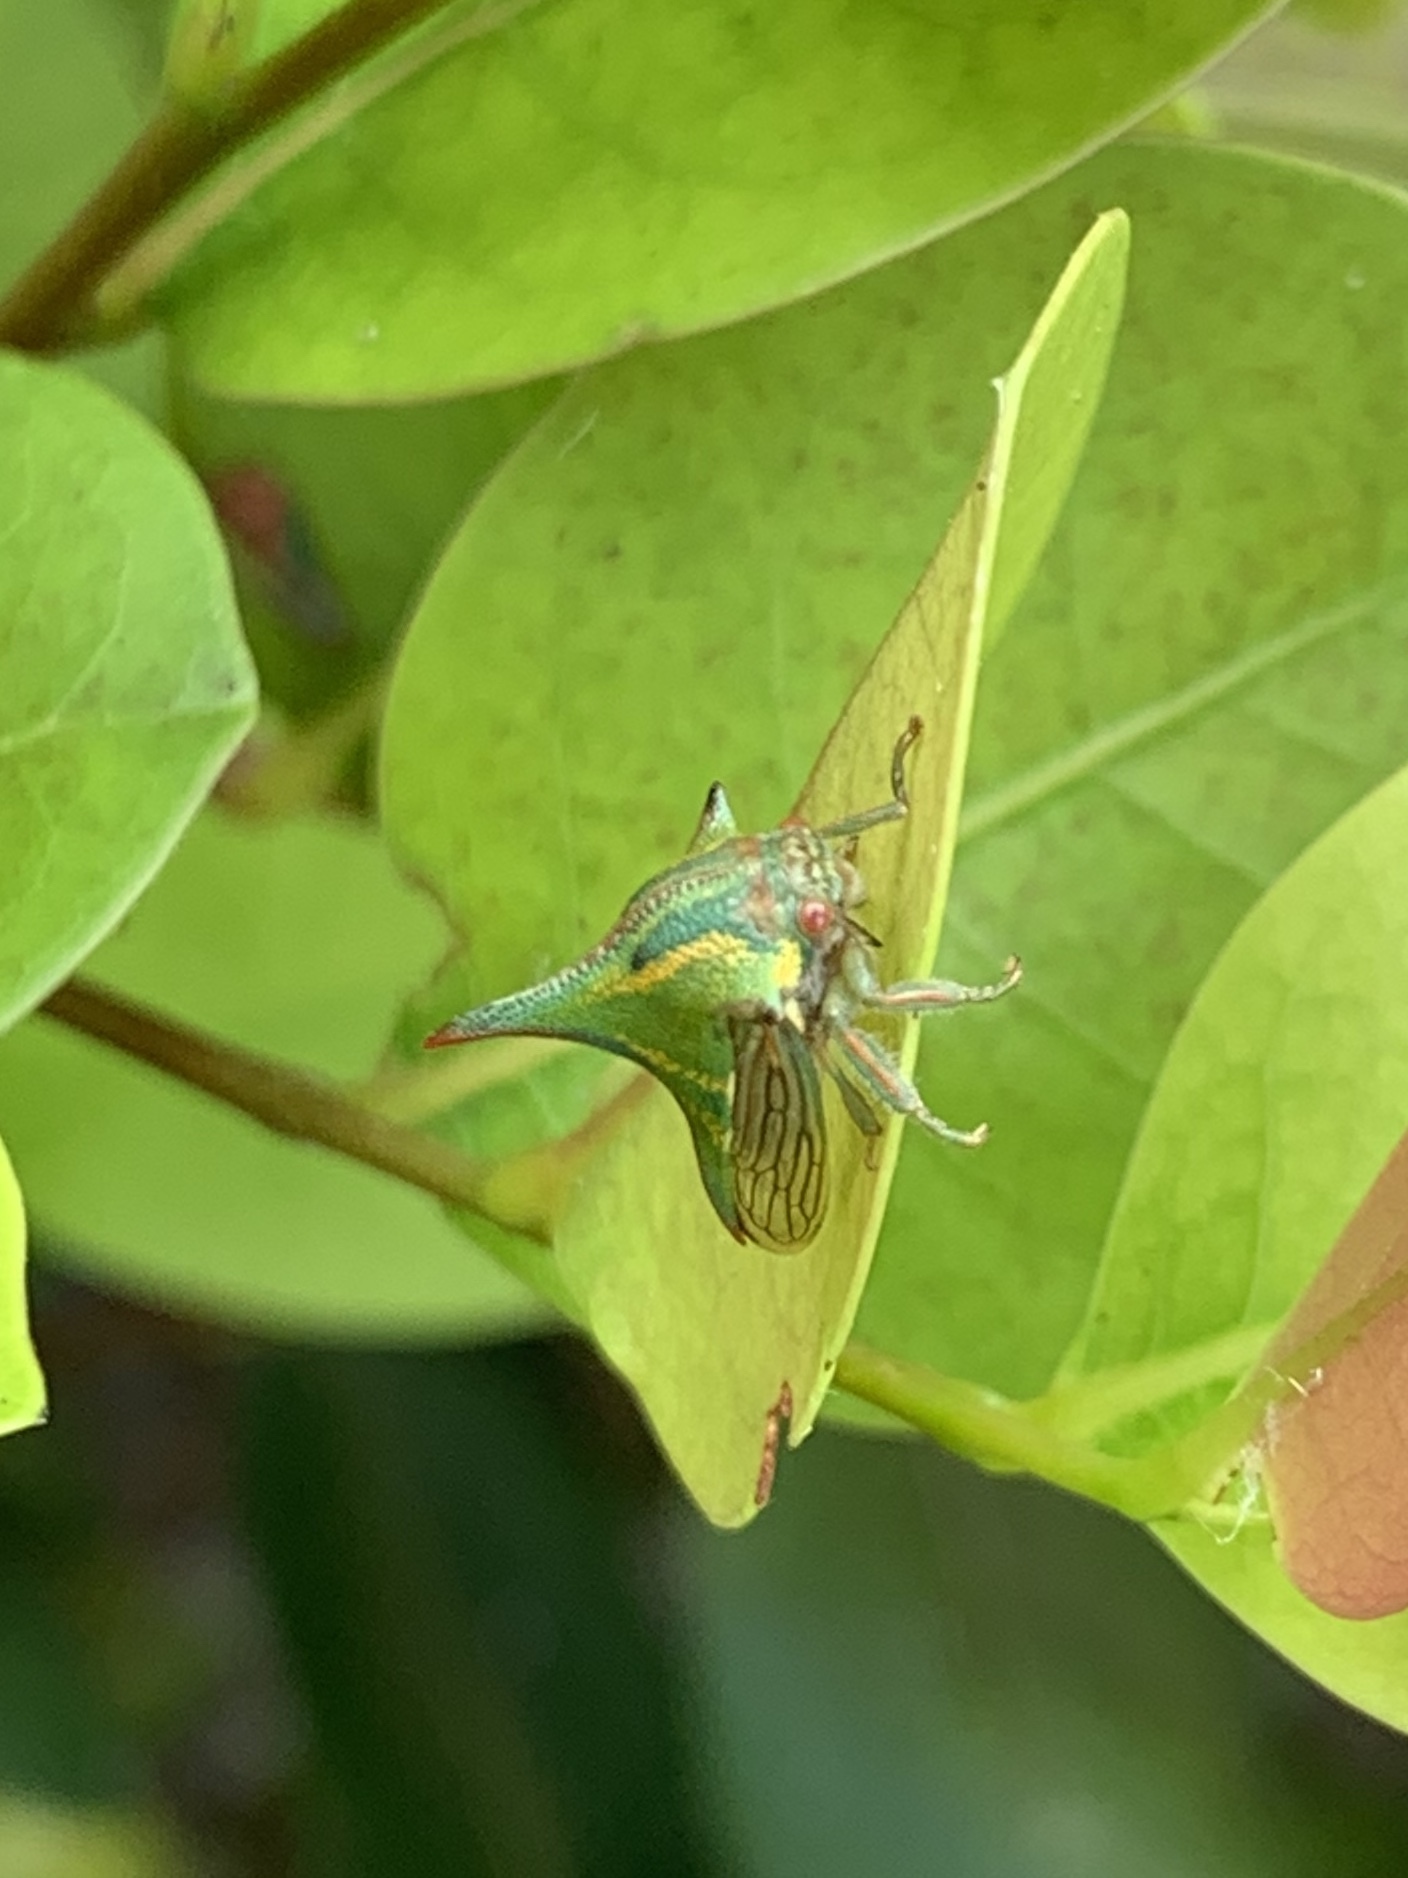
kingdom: Animalia
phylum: Arthropoda
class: Insecta
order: Hemiptera
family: Membracidae
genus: Umbonia
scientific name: Umbonia crassicornis
